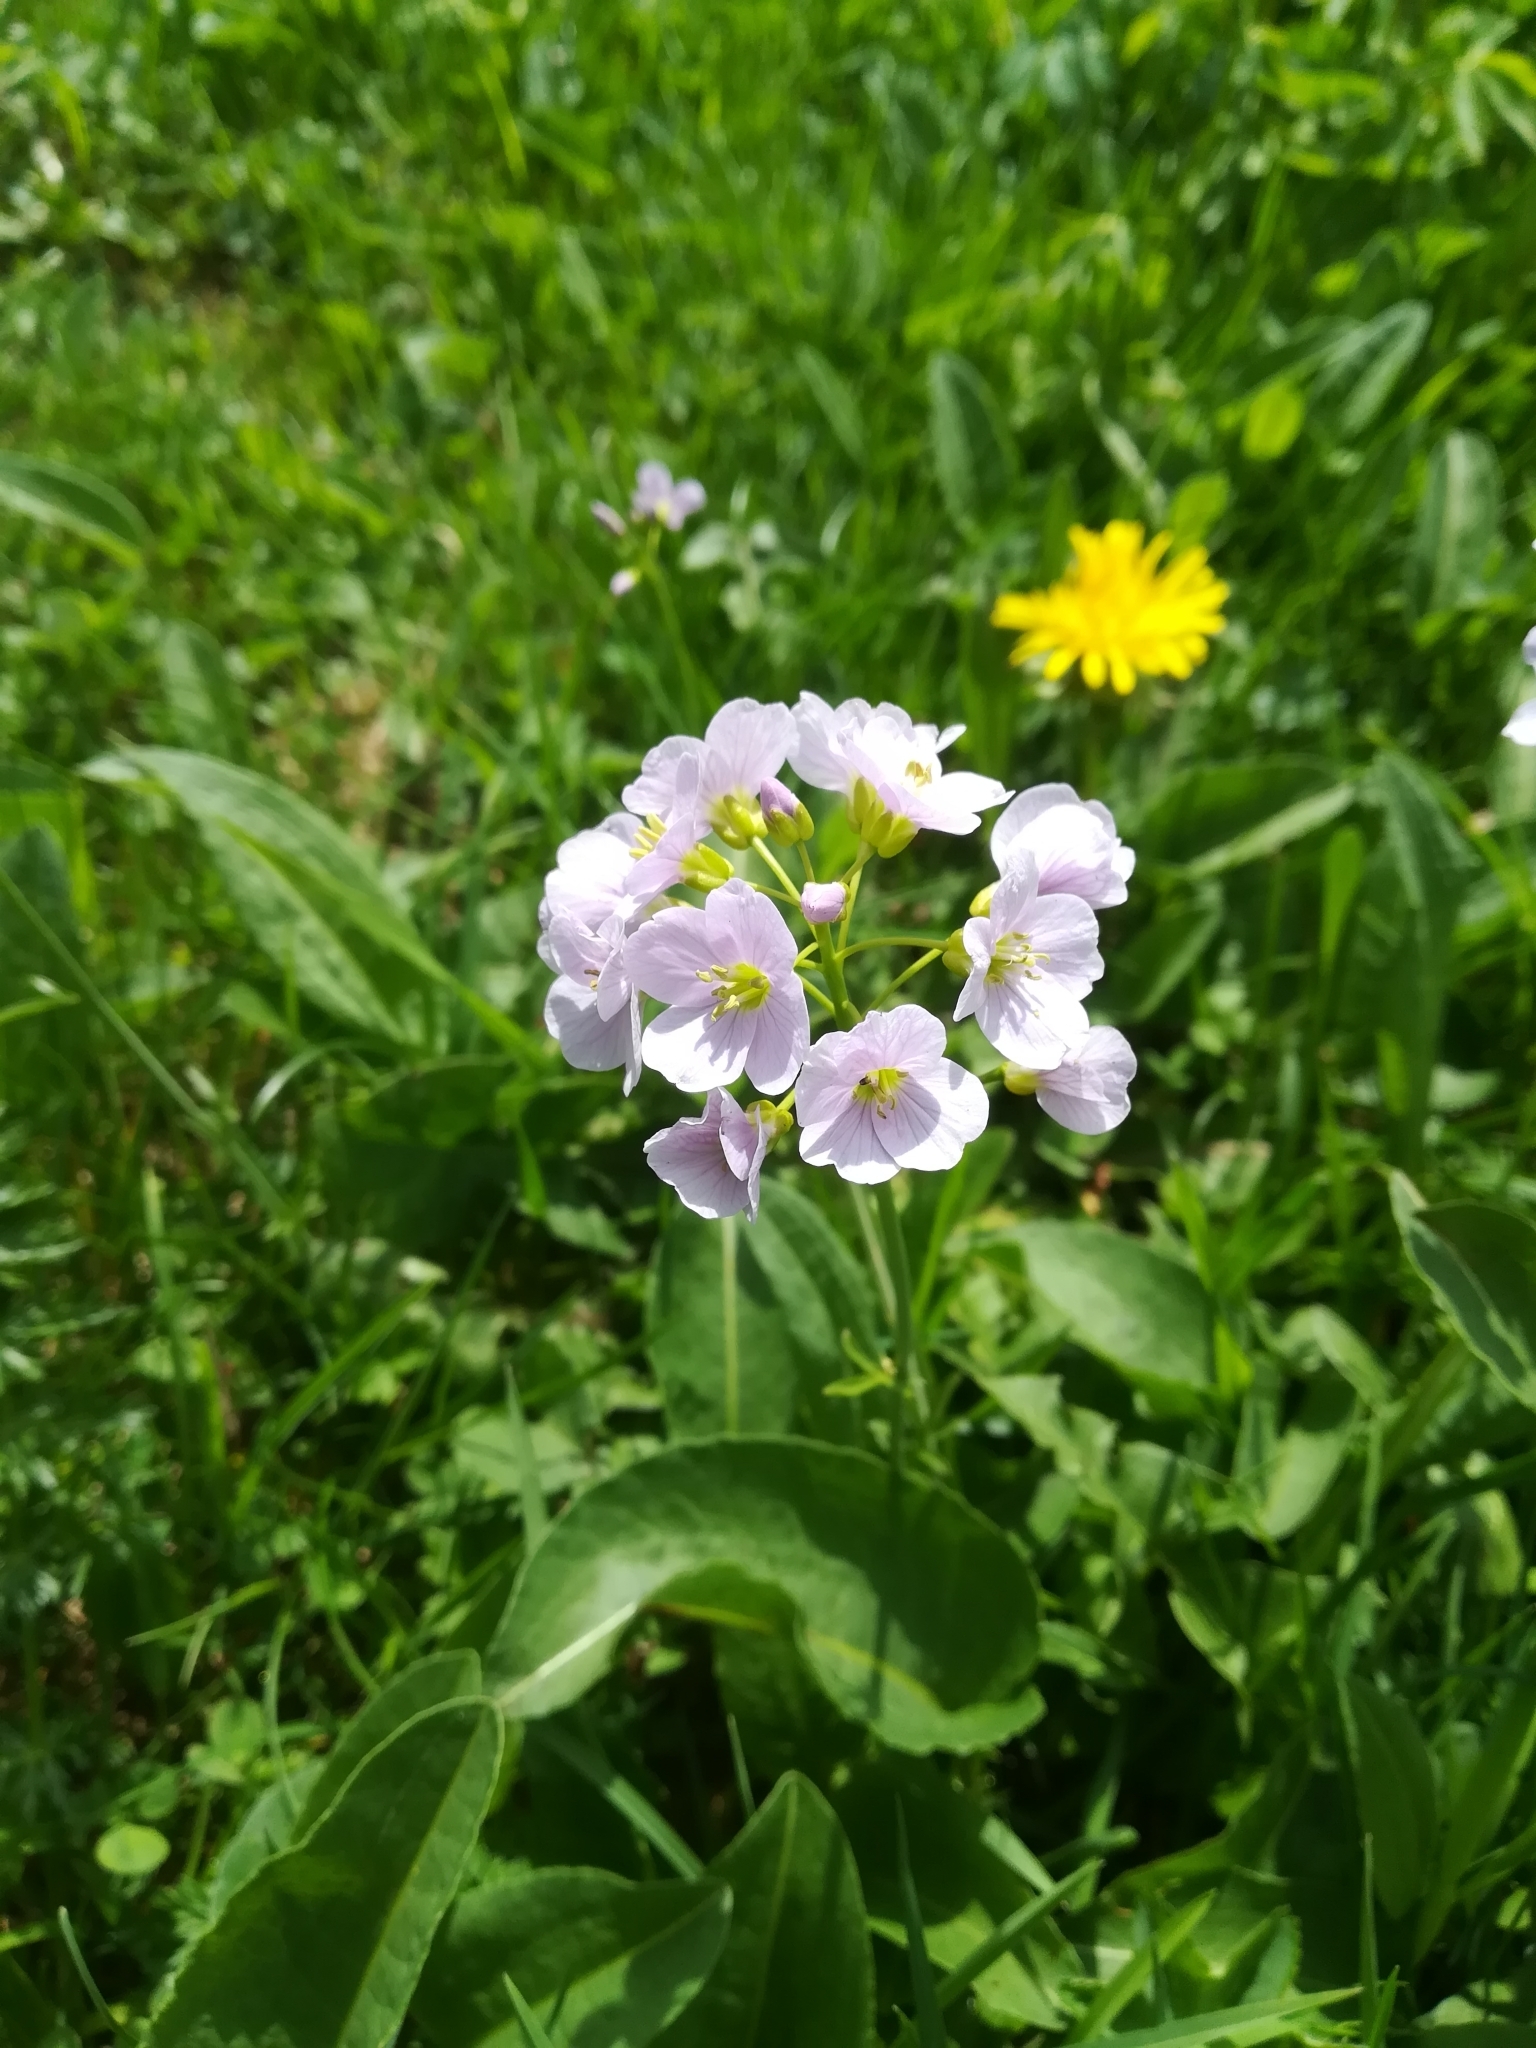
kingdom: Plantae
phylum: Tracheophyta
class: Magnoliopsida
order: Brassicales
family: Brassicaceae
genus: Cardamine
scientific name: Cardamine pratensis
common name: Cuckoo flower
